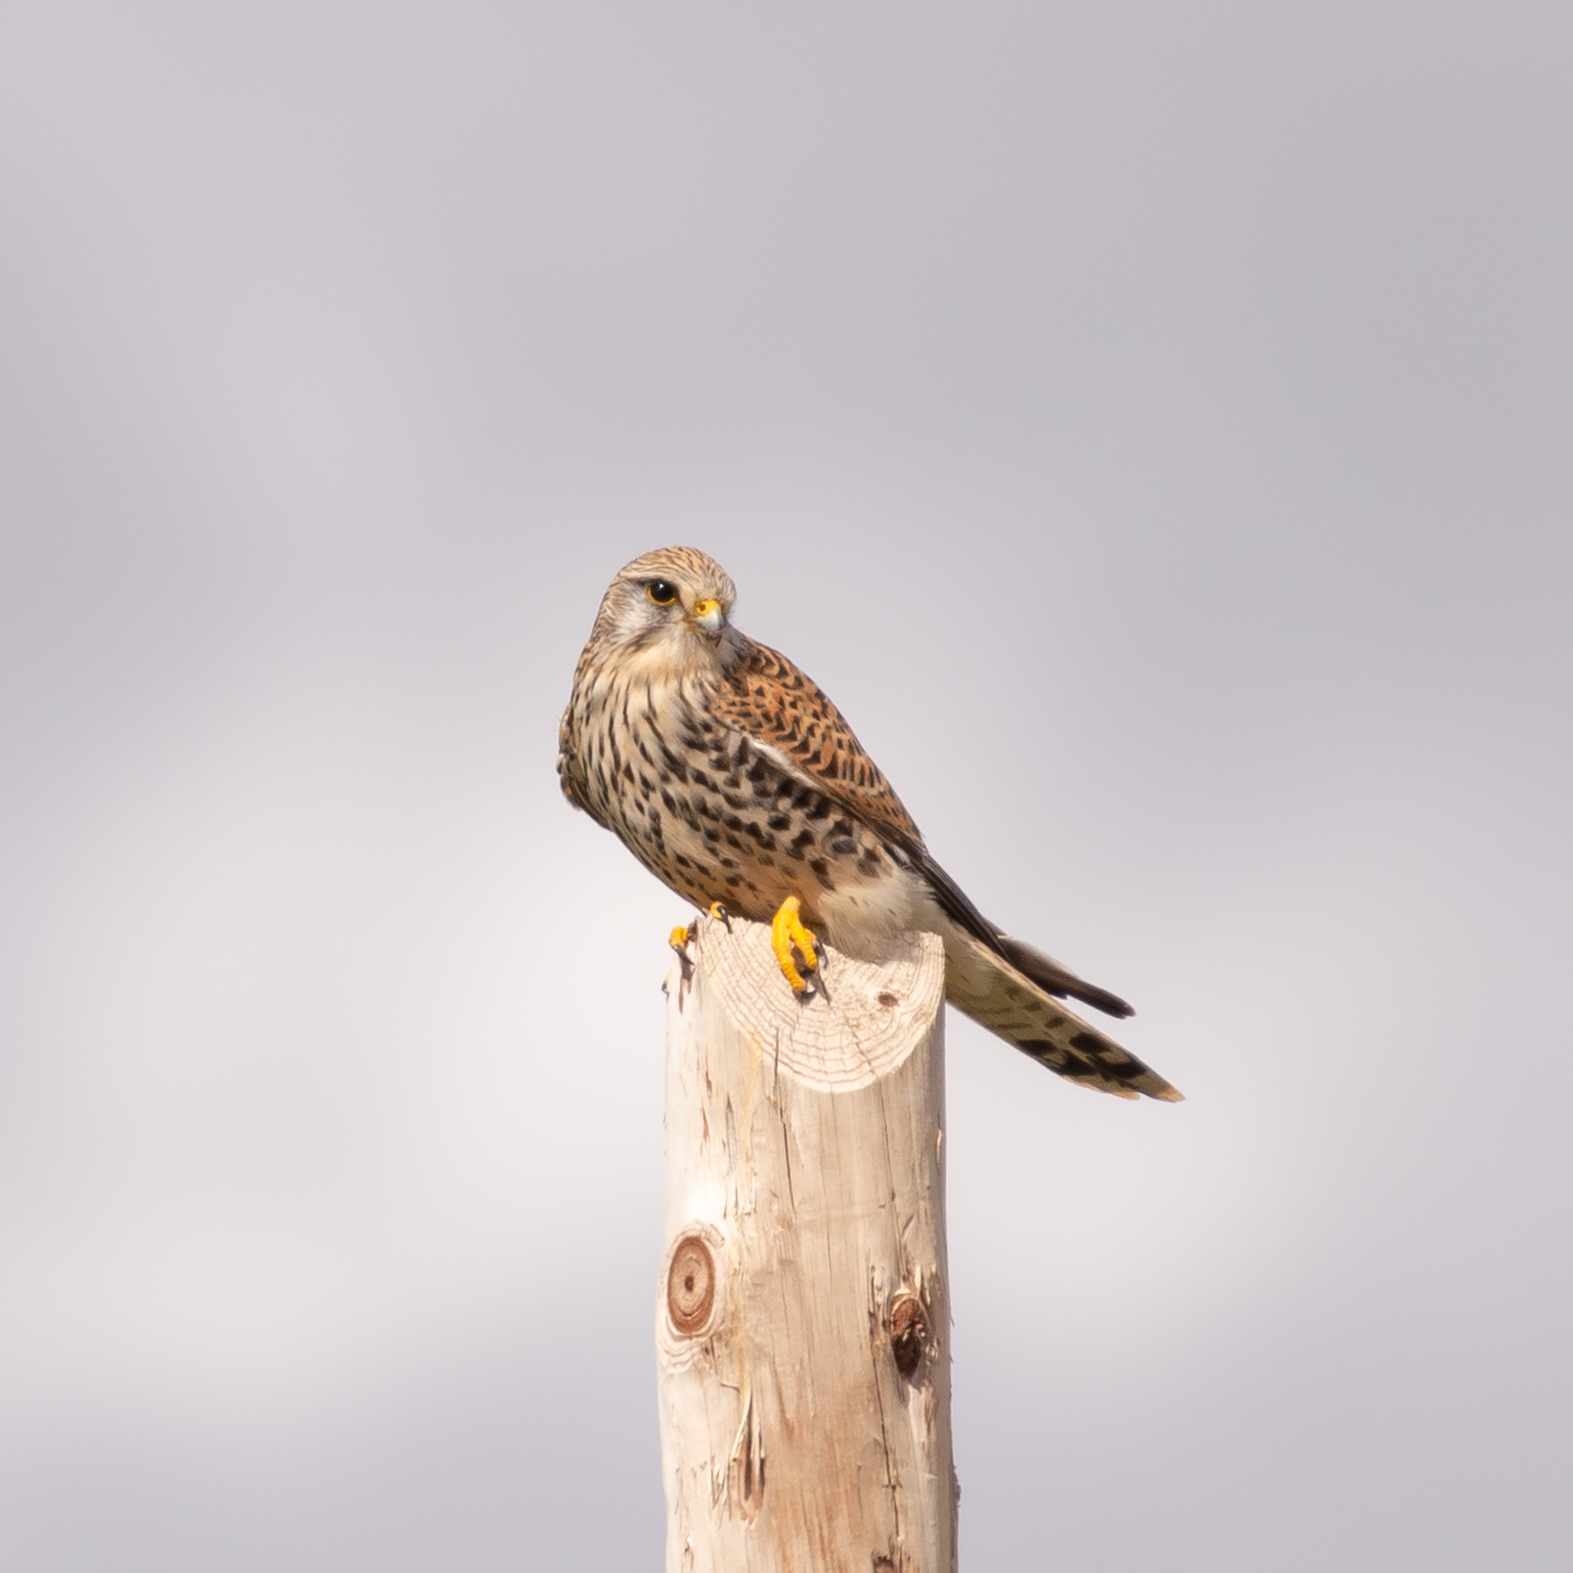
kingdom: Animalia
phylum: Chordata
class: Aves
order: Falconiformes
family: Falconidae
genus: Falco
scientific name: Falco tinnunculus
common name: Common kestrel
